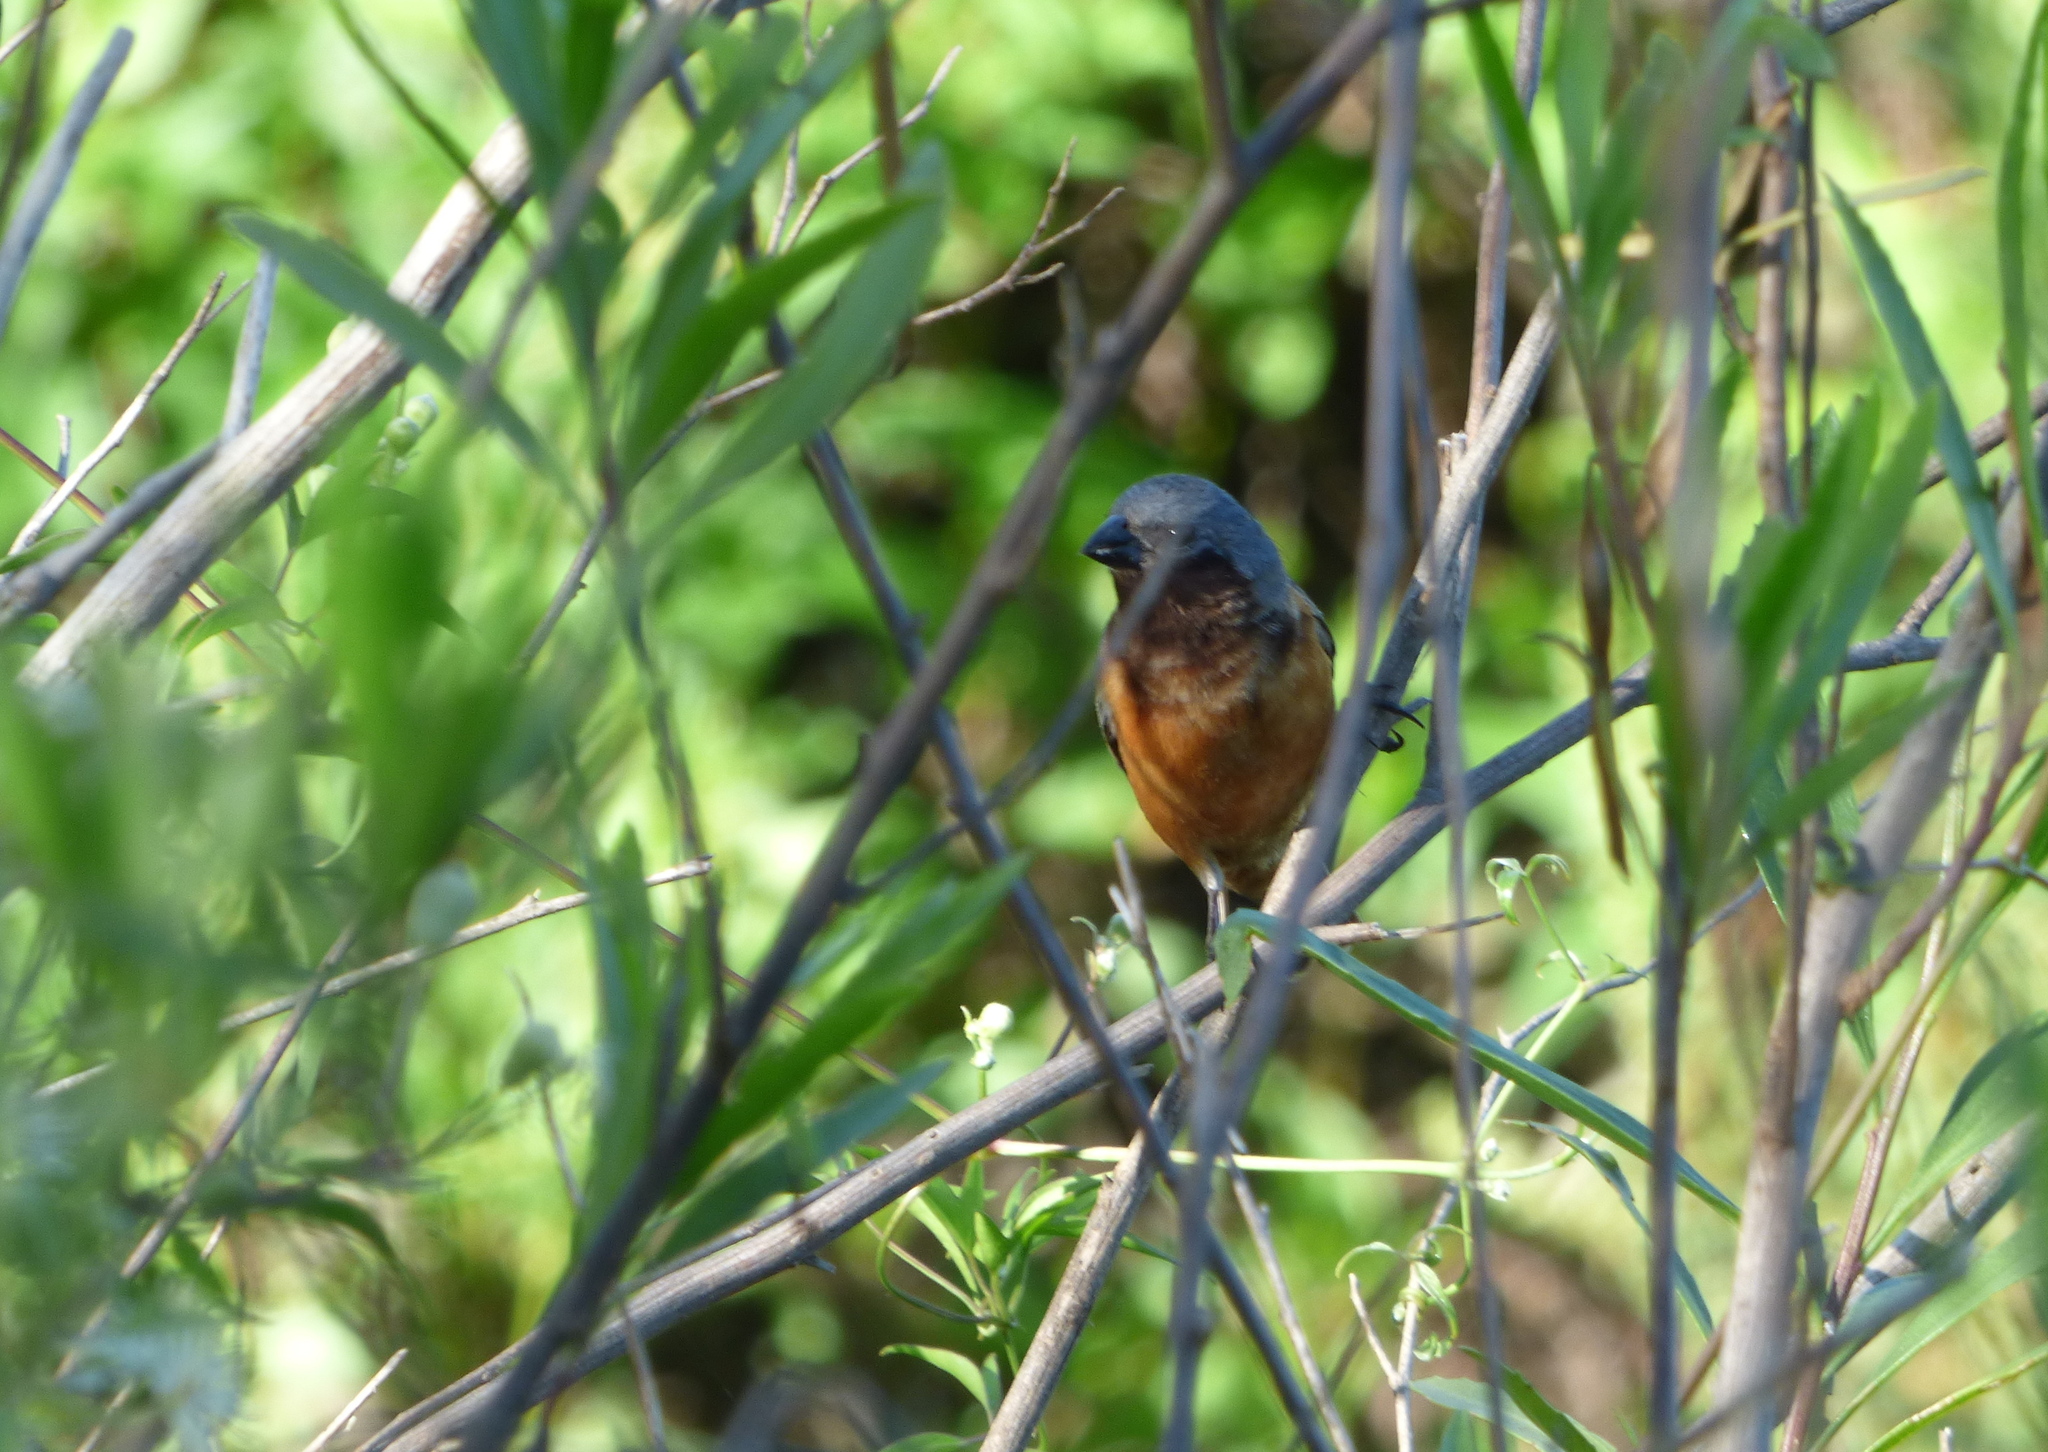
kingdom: Animalia
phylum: Chordata
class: Aves
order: Passeriformes
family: Thraupidae
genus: Sporophila
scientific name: Sporophila ruficollis
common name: Dark-throated seedeater
